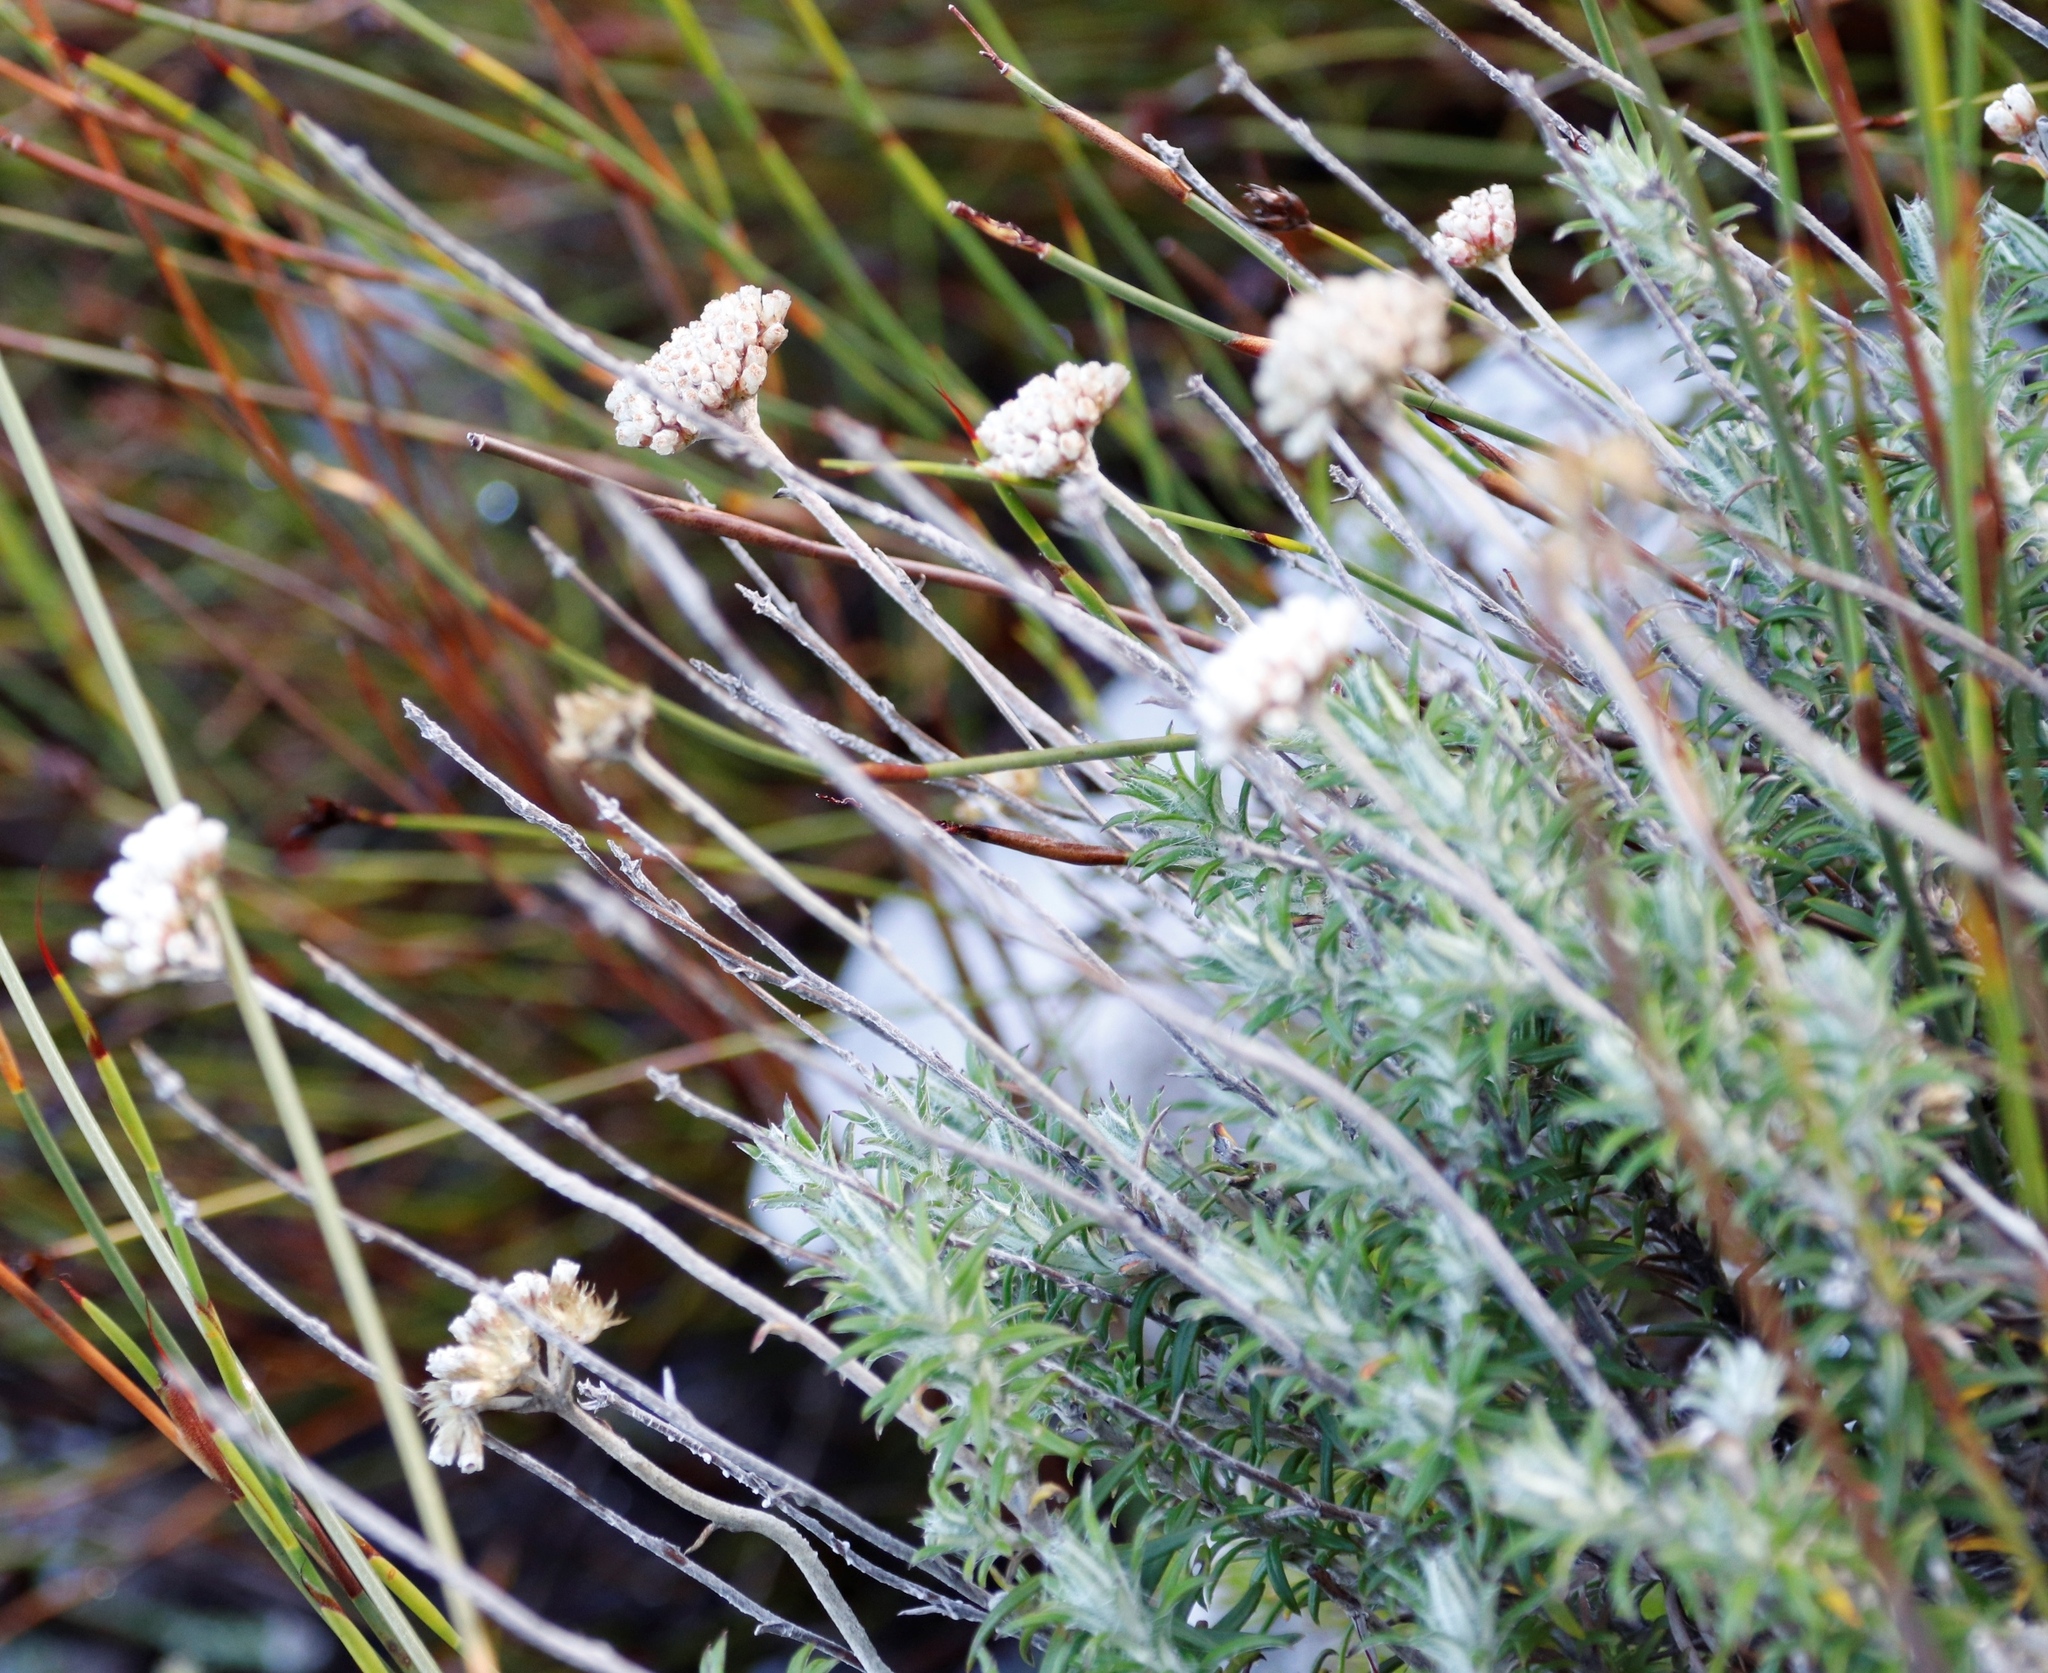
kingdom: Plantae
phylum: Tracheophyta
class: Magnoliopsida
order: Asterales
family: Asteraceae
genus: Anaxeton
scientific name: Anaxeton arborescens
